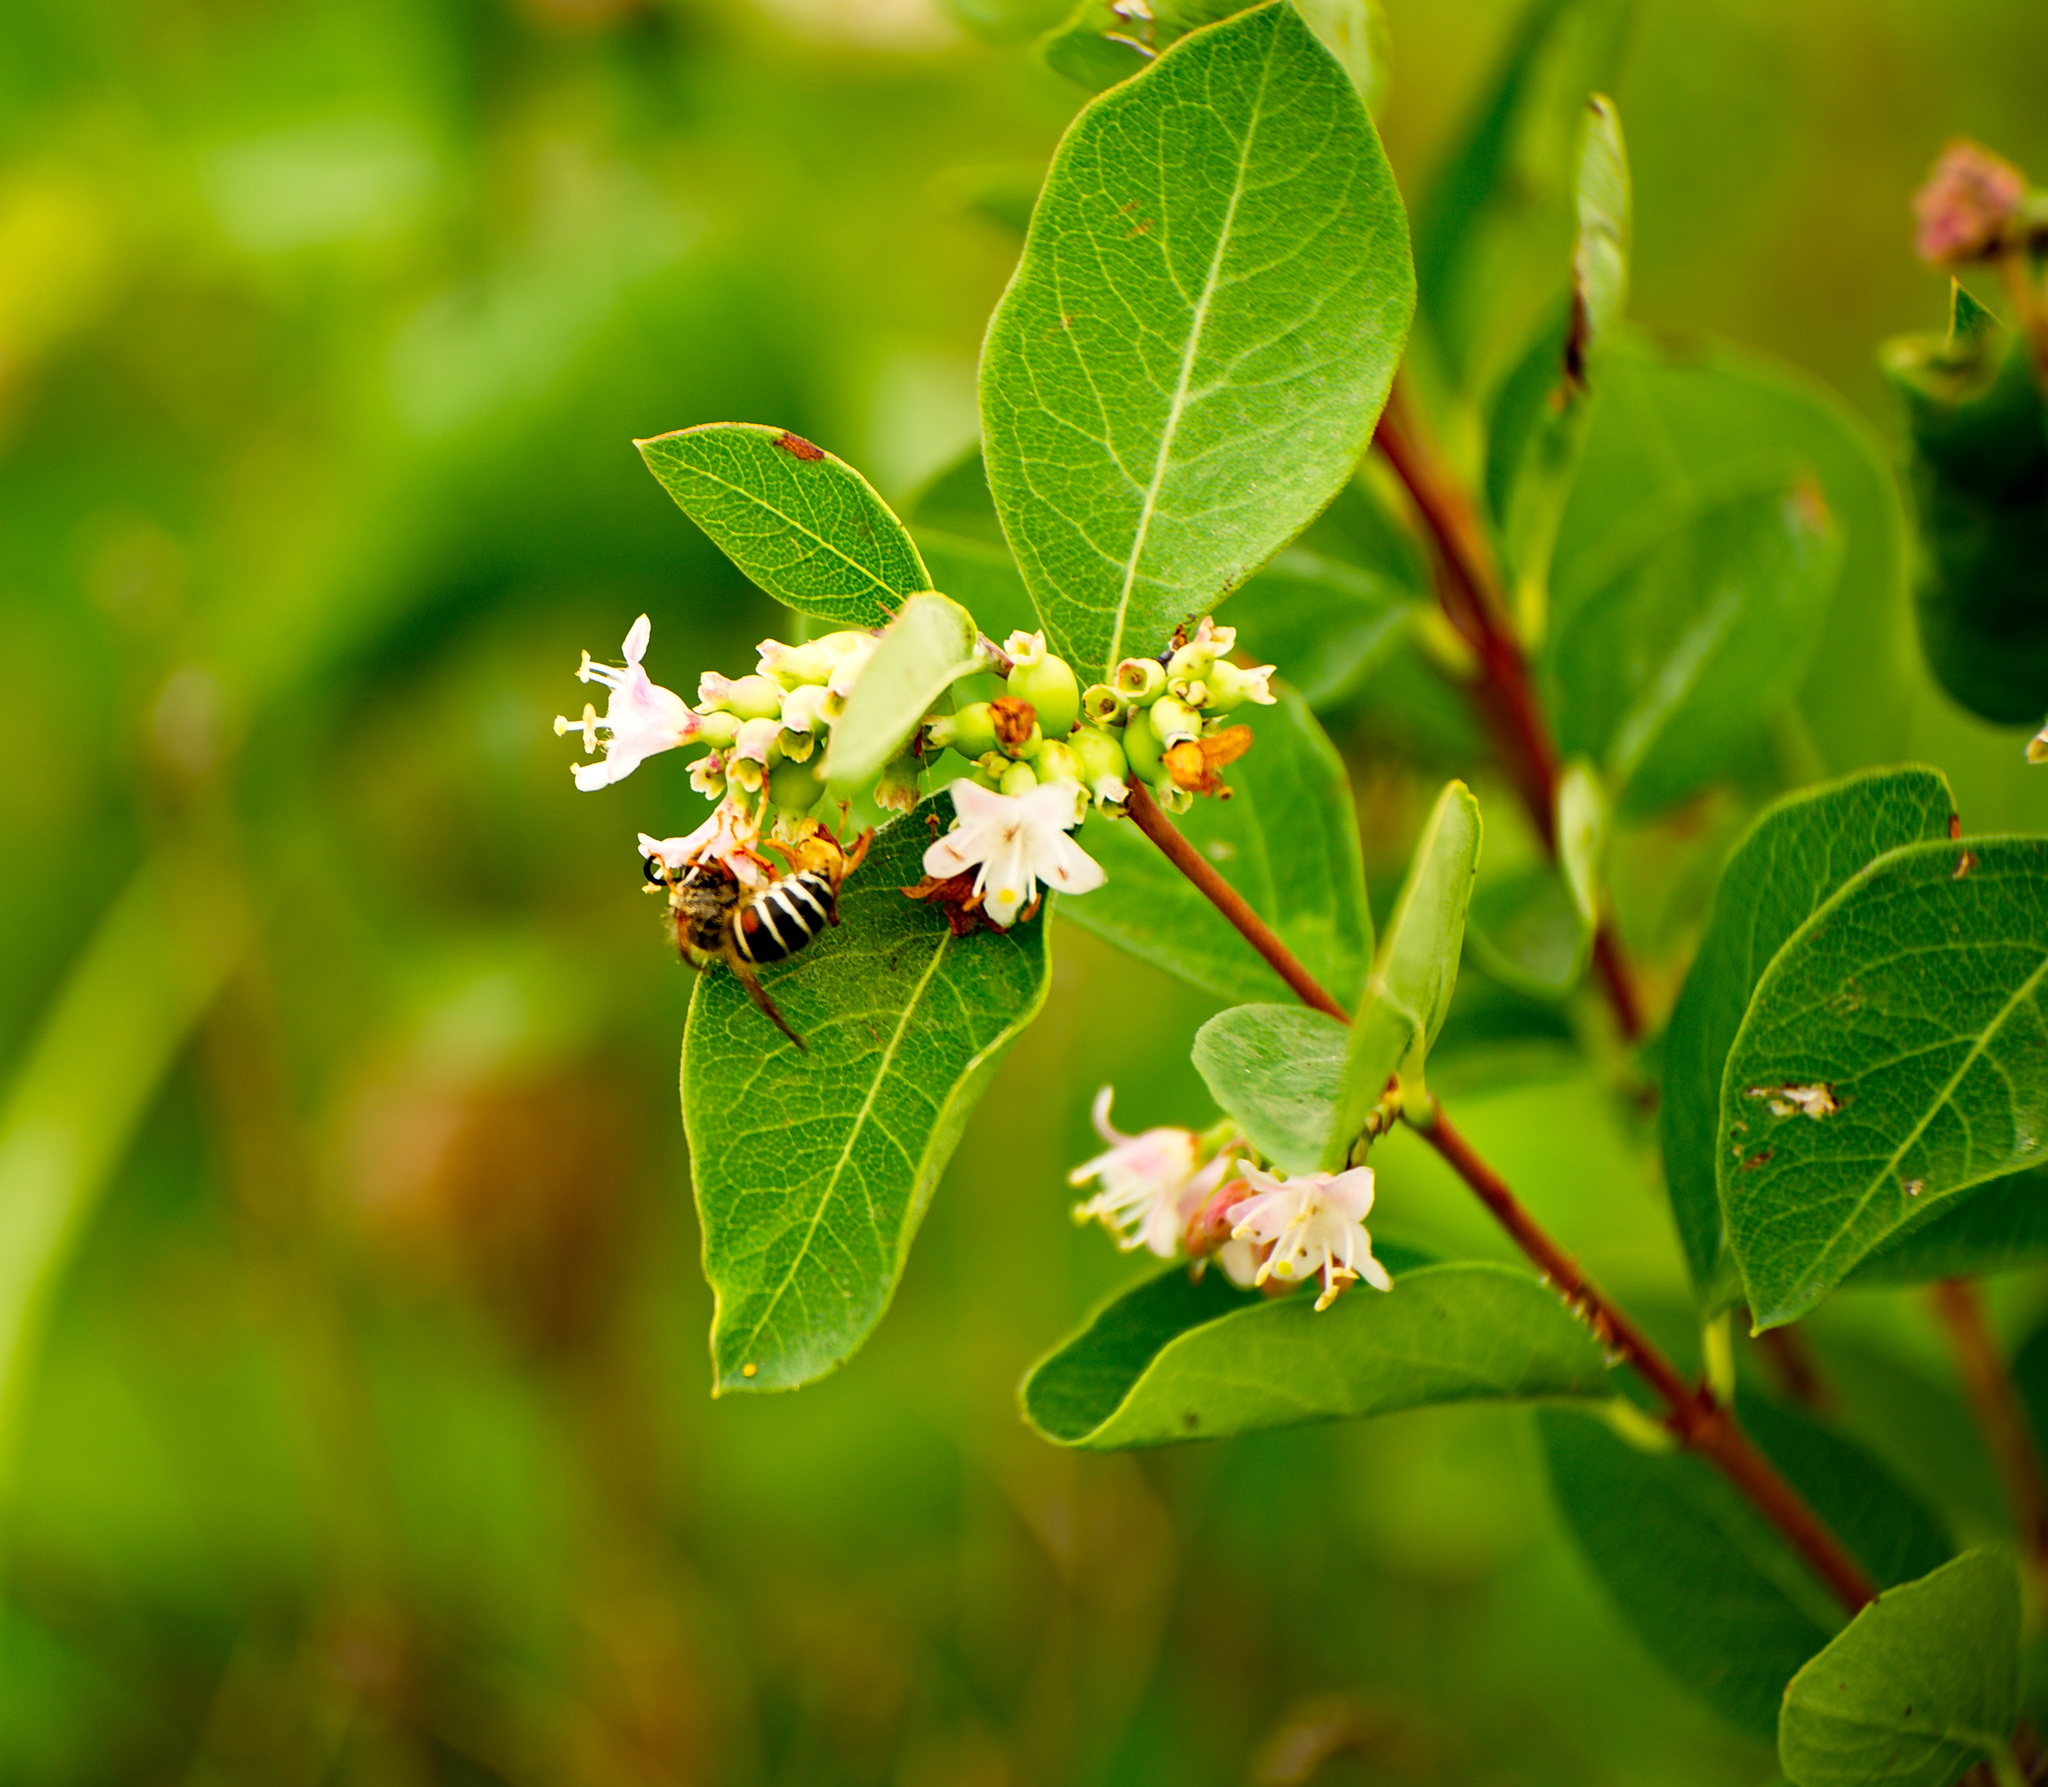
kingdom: Plantae
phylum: Tracheophyta
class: Magnoliopsida
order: Dipsacales
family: Caprifoliaceae
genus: Symphoricarpos
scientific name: Symphoricarpos occidentalis
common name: Wolfberry
